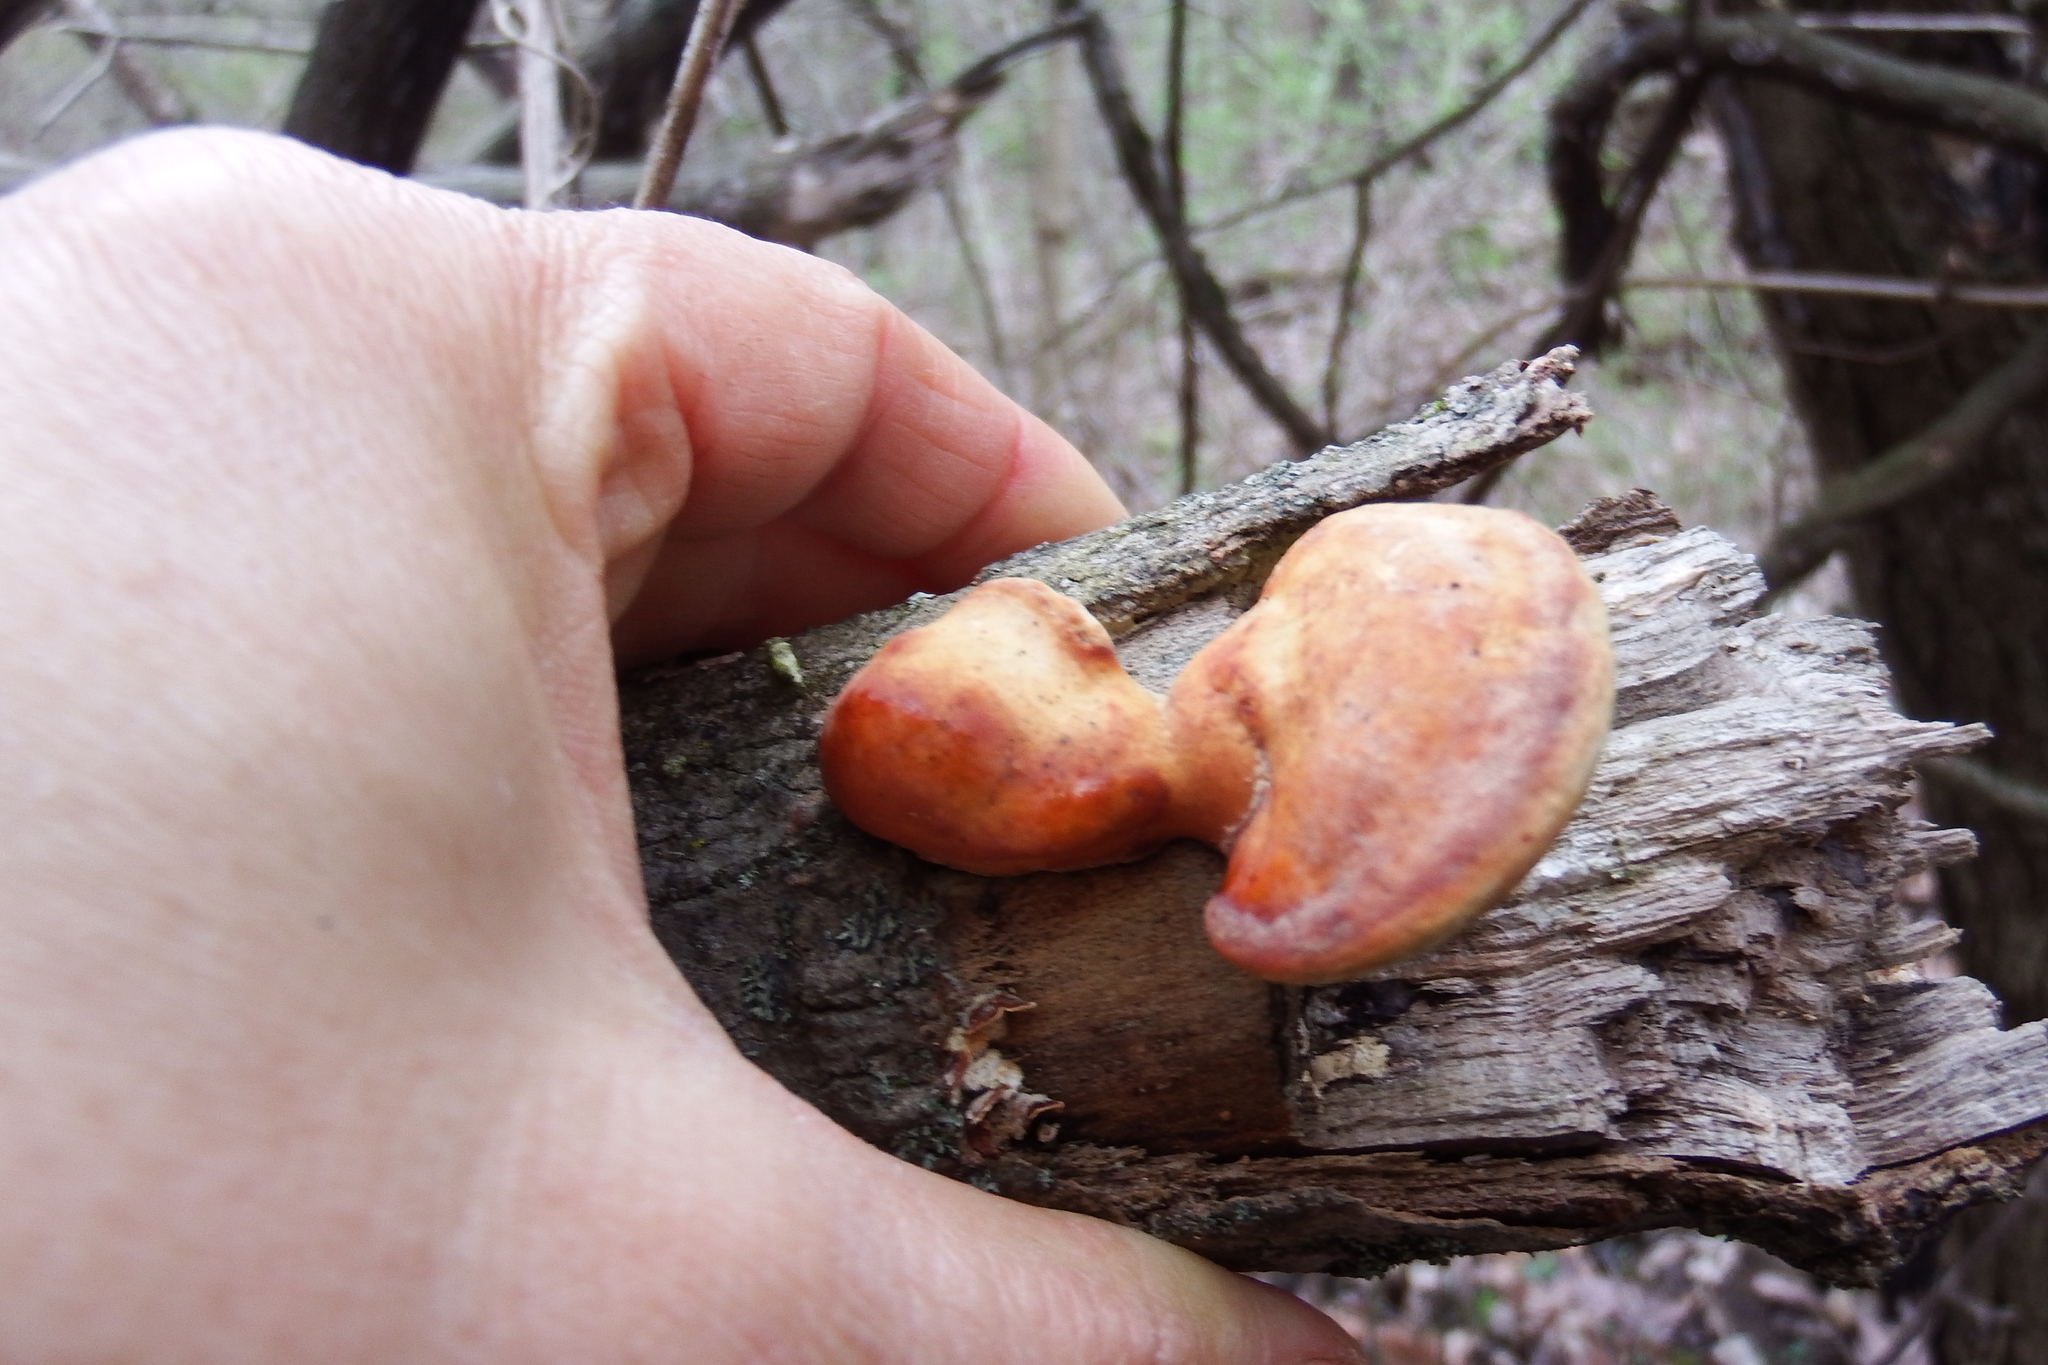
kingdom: Fungi
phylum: Basidiomycota
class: Agaricomycetes
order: Polyporales
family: Polyporaceae
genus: Ganoderma
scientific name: Ganoderma curtisii
